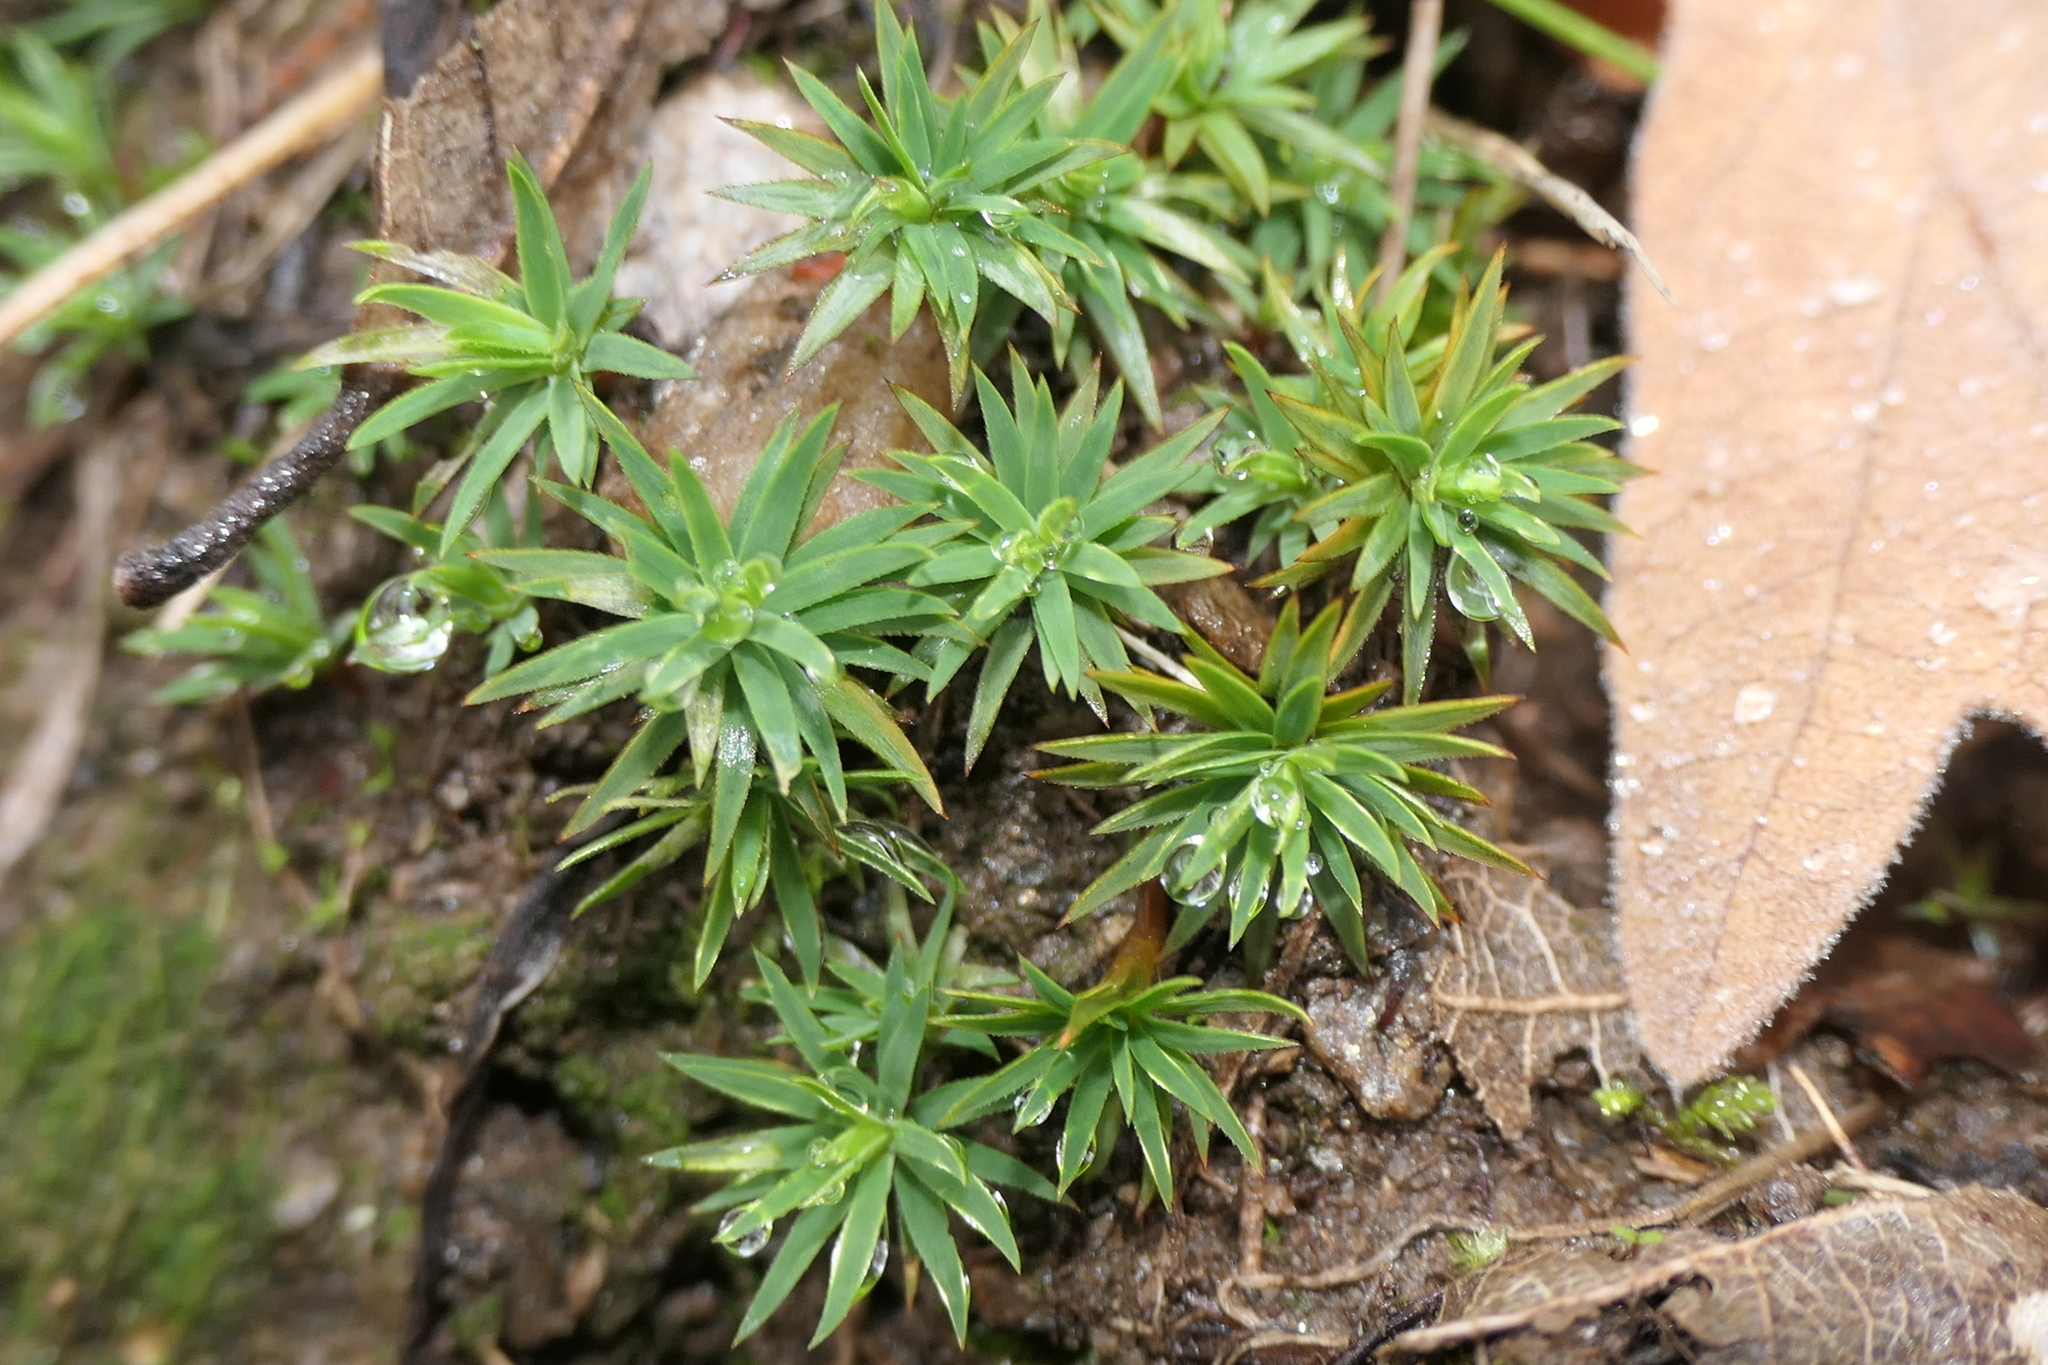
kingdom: Plantae
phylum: Bryophyta
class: Polytrichopsida
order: Polytrichales
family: Polytrichaceae
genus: Pogonatum
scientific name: Pogonatum urnigerum
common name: Urn hair moss
